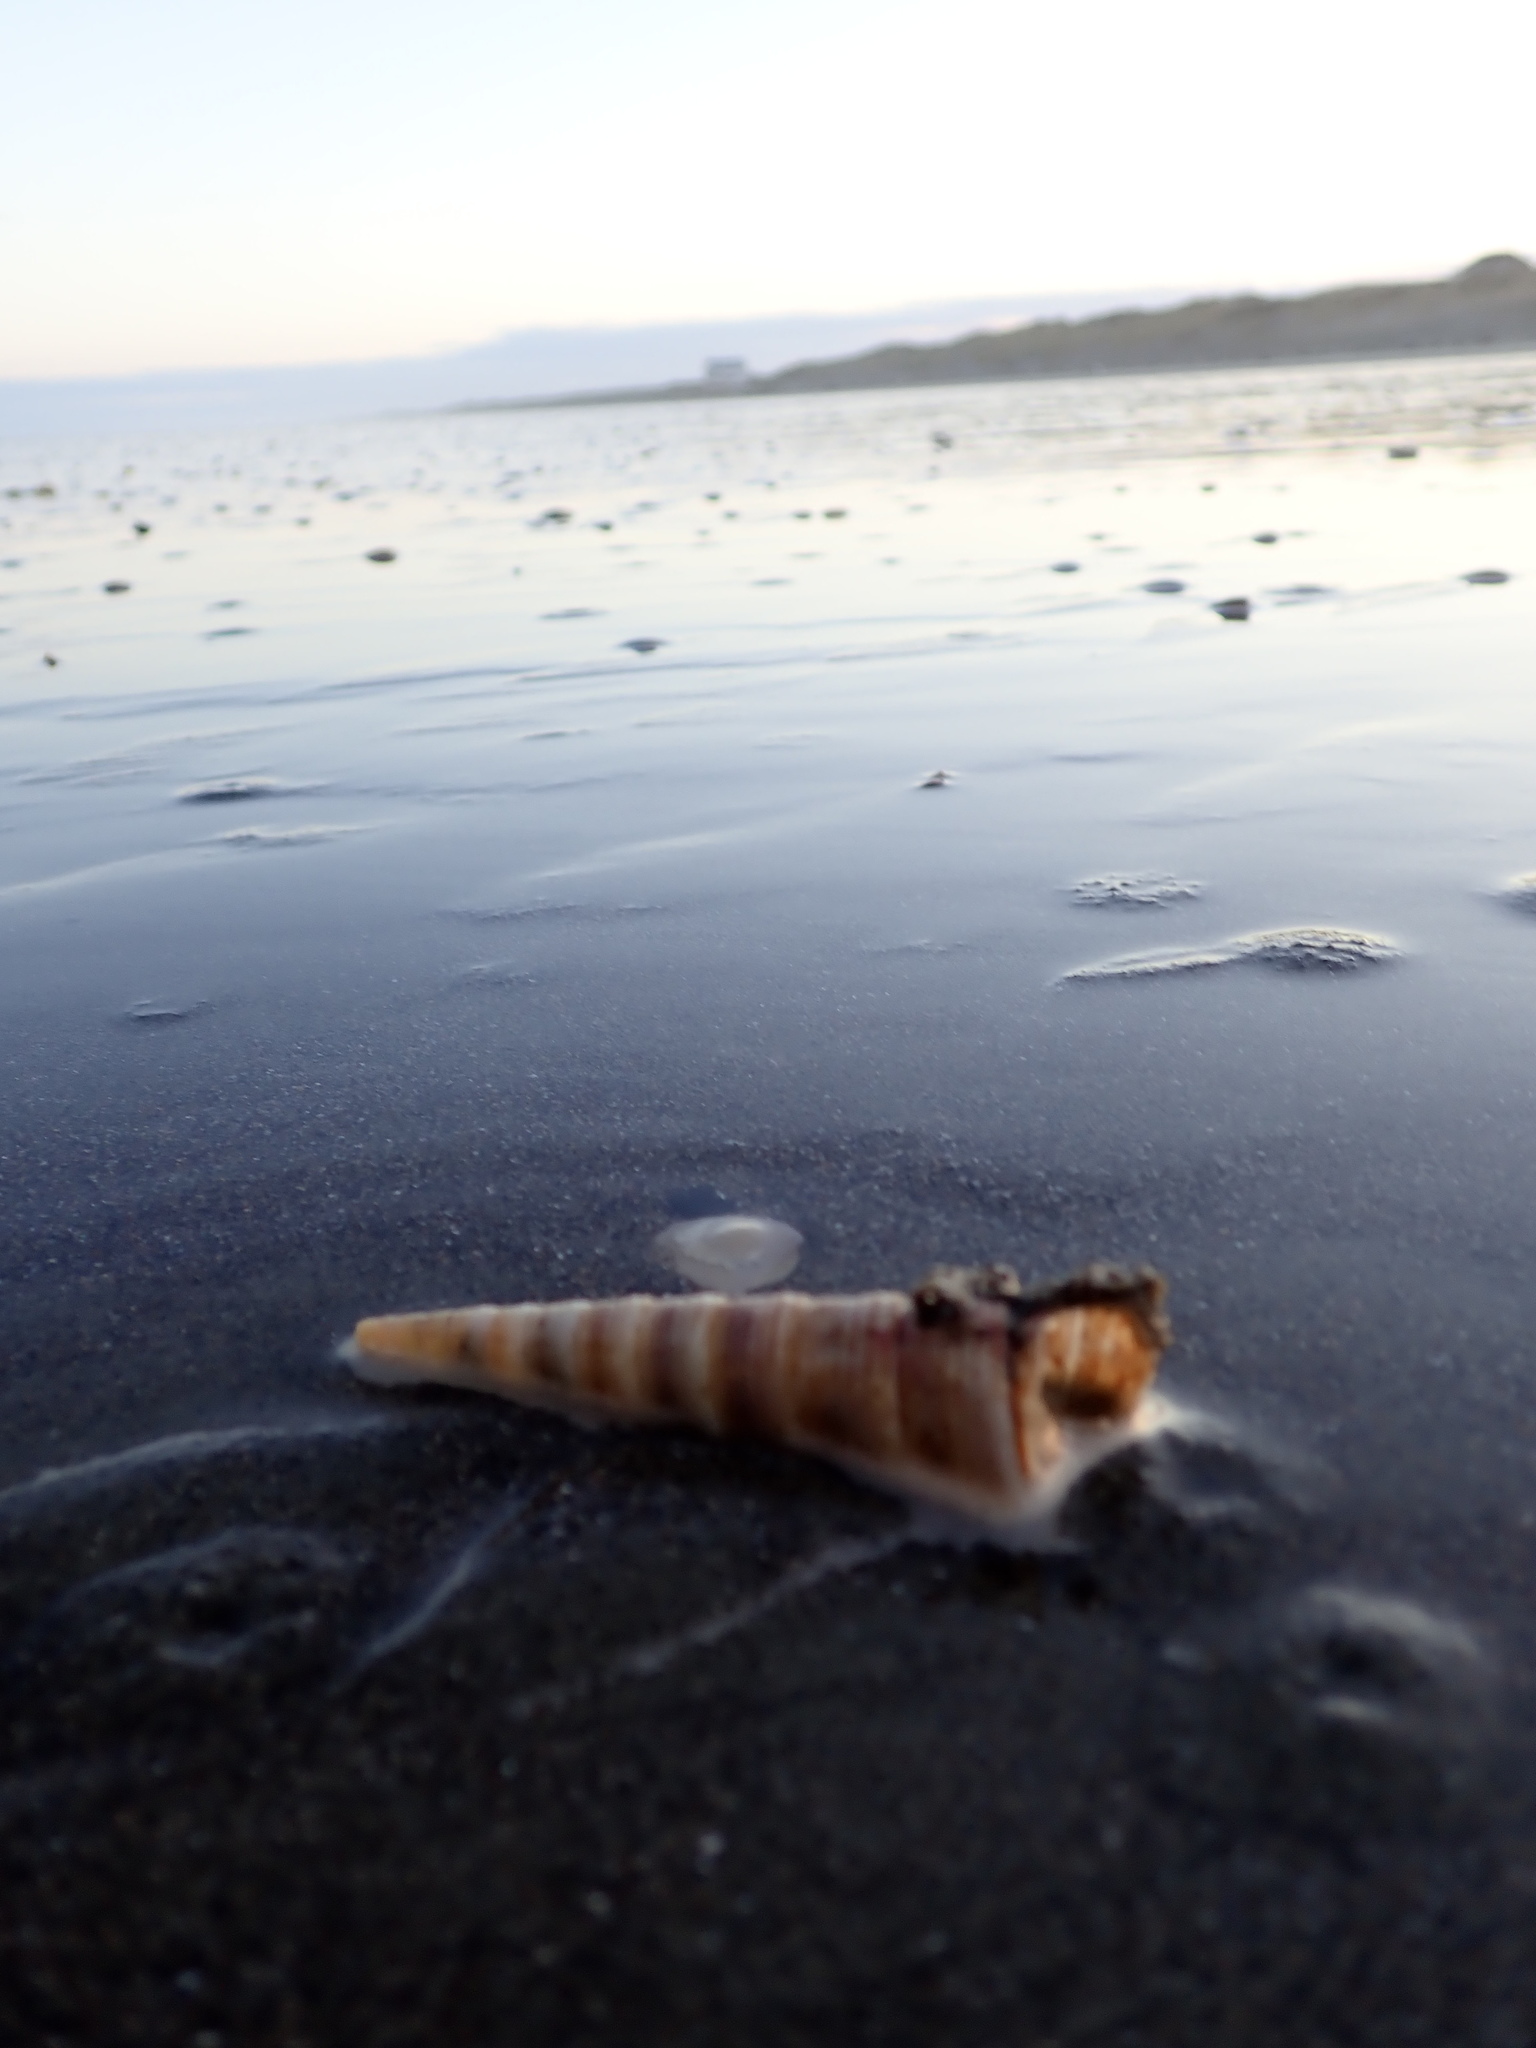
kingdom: Animalia
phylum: Mollusca
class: Gastropoda
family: Turritellidae
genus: Zeacolpus
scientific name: Zeacolpus vittatus
